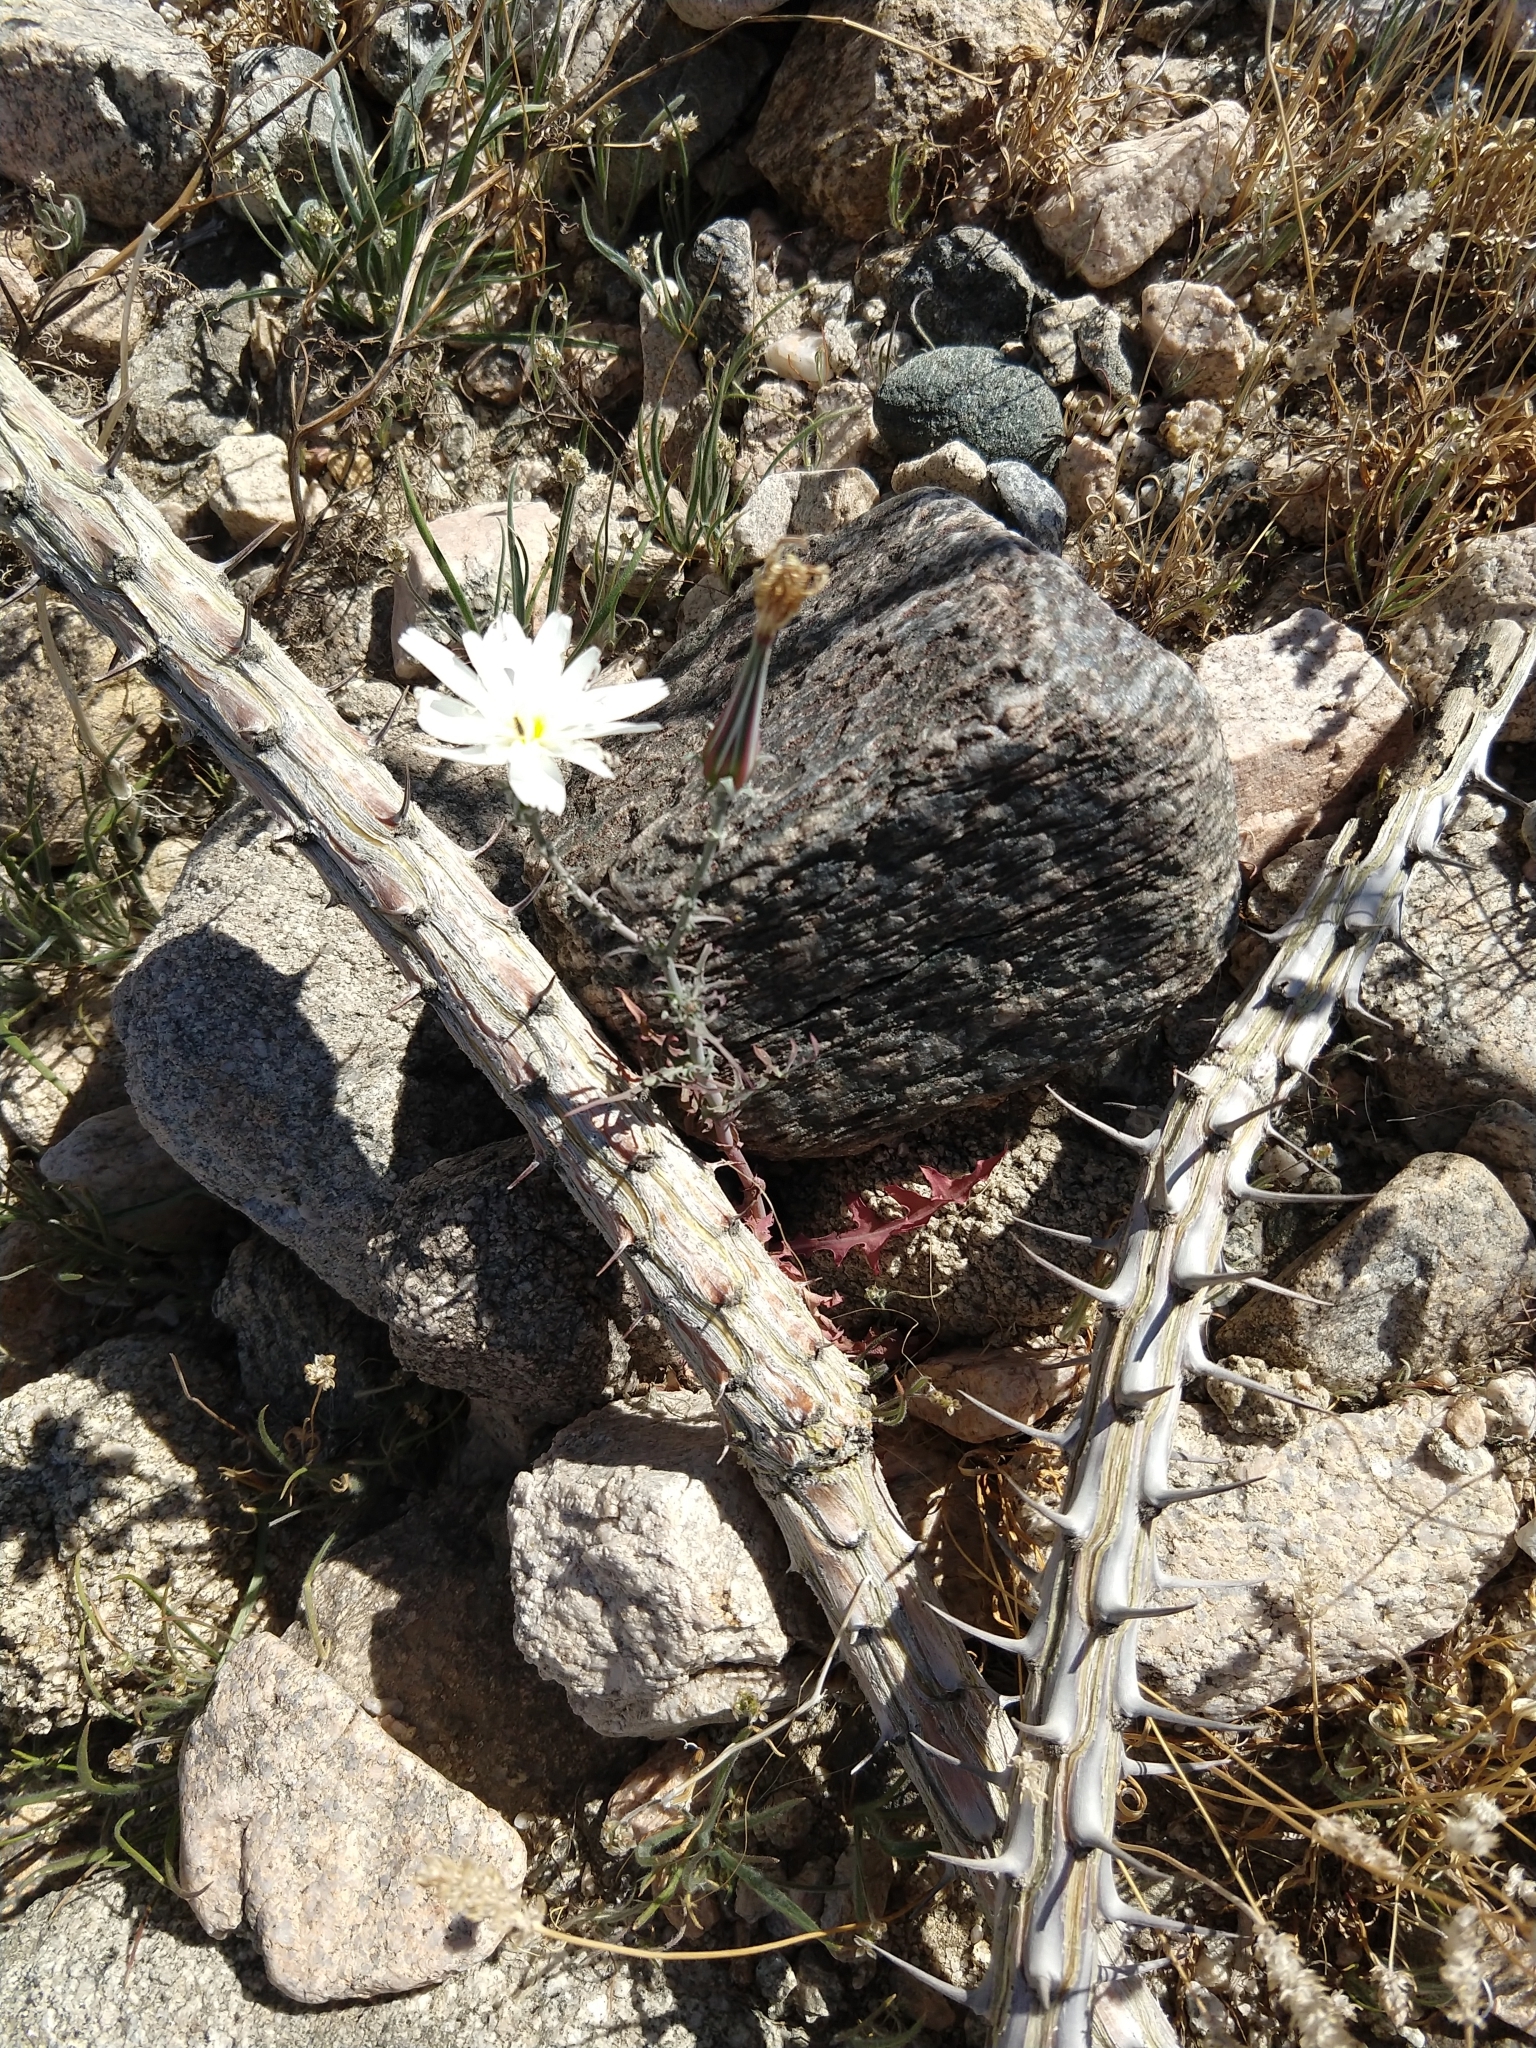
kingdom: Plantae
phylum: Tracheophyta
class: Magnoliopsida
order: Asterales
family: Asteraceae
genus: Rafinesquia
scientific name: Rafinesquia neomexicana
